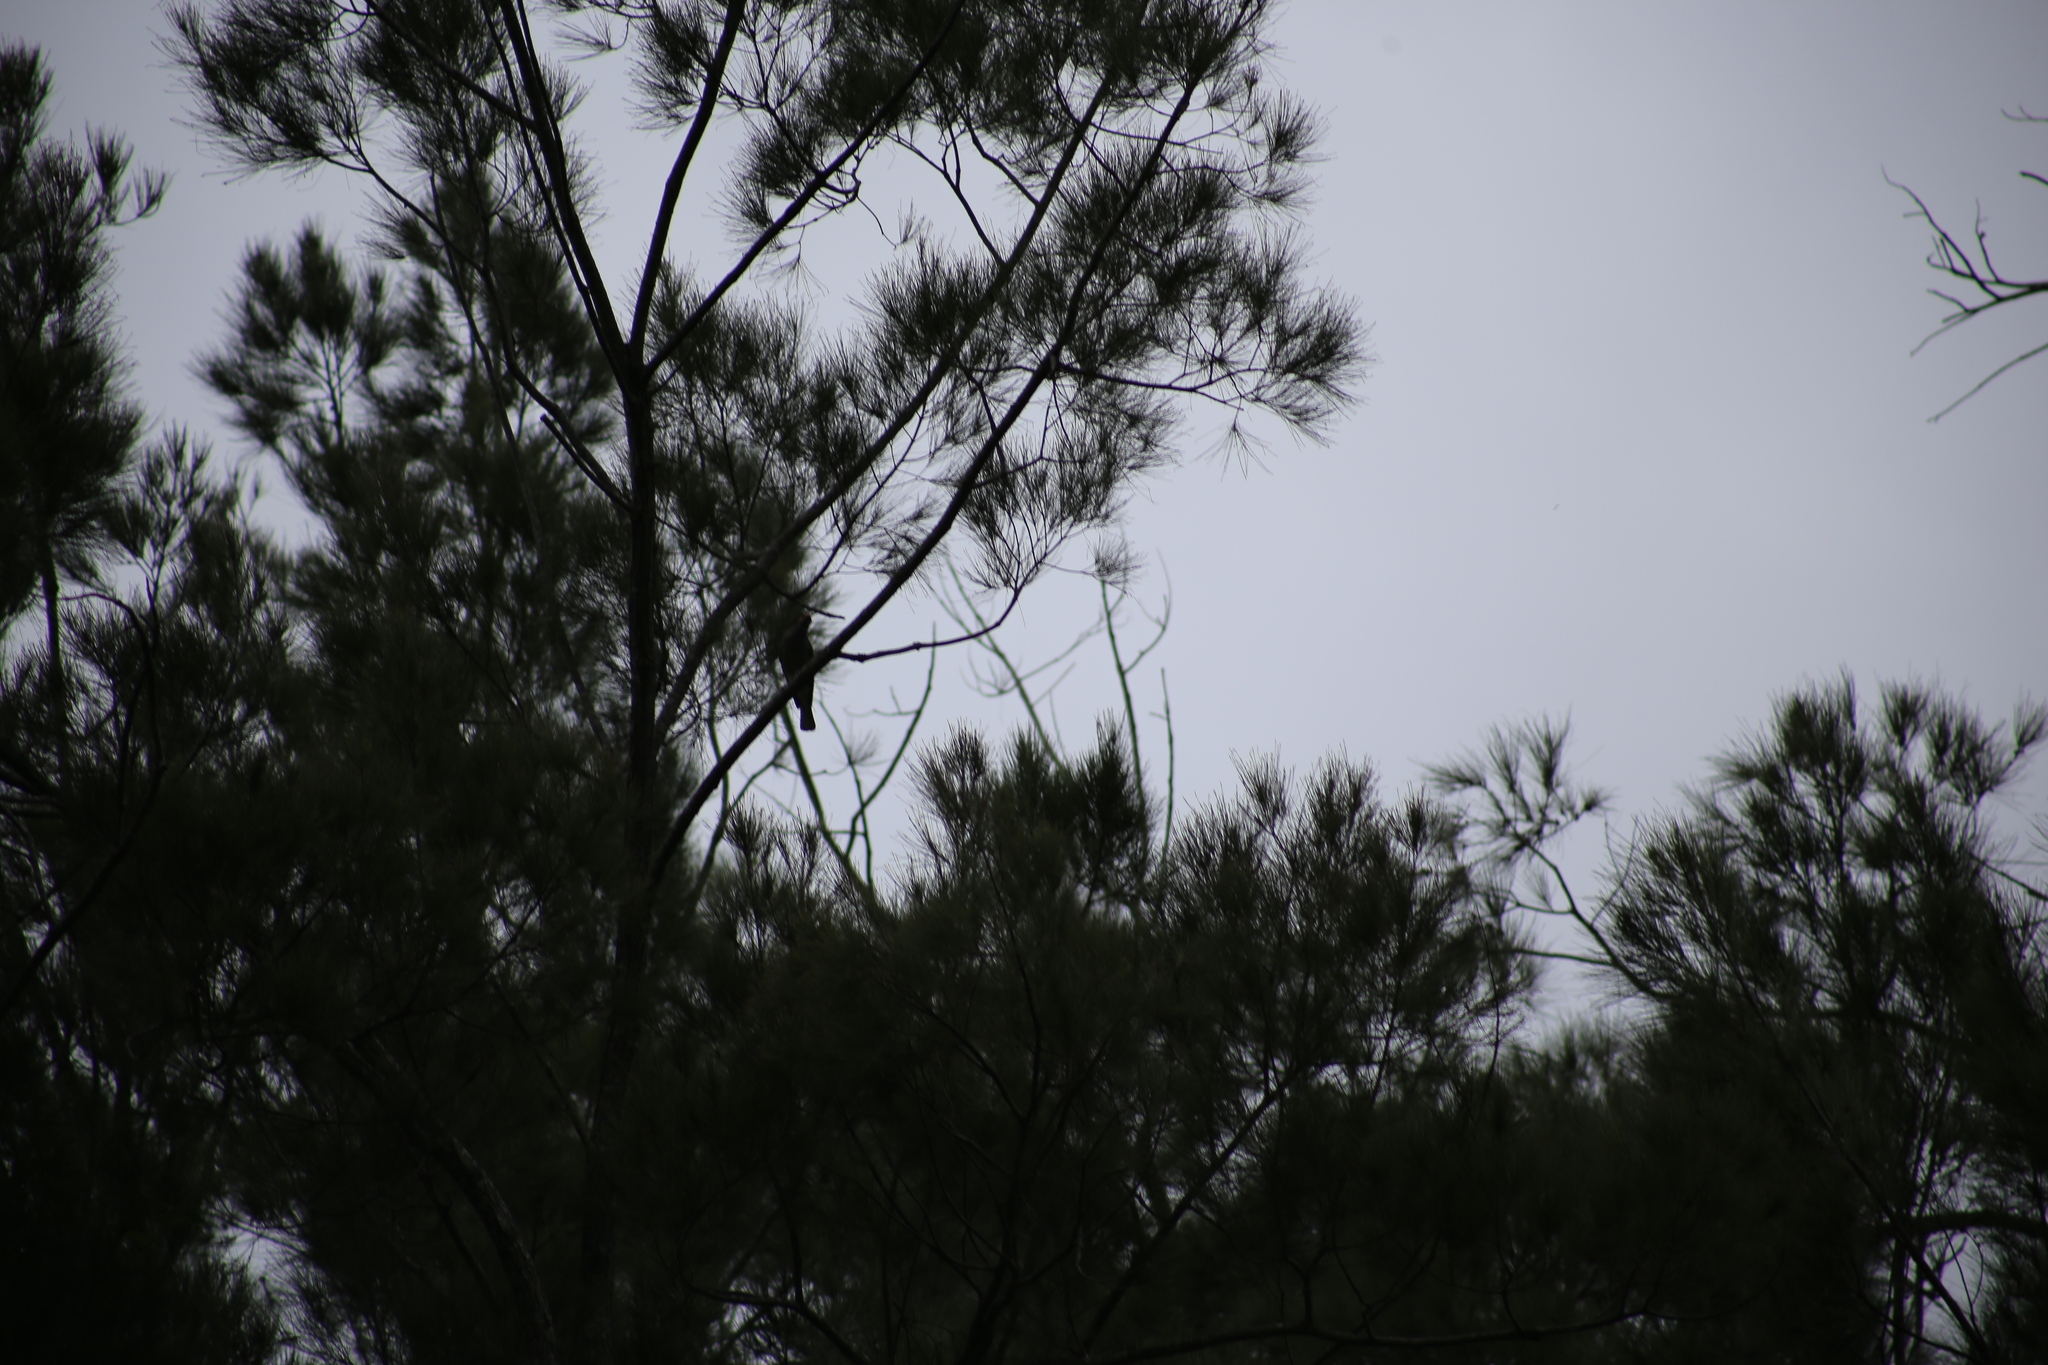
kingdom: Animalia
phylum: Chordata
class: Aves
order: Passeriformes
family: Oriolidae
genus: Sphecotheres
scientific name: Sphecotheres vieilloti
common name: Australasian figbird
